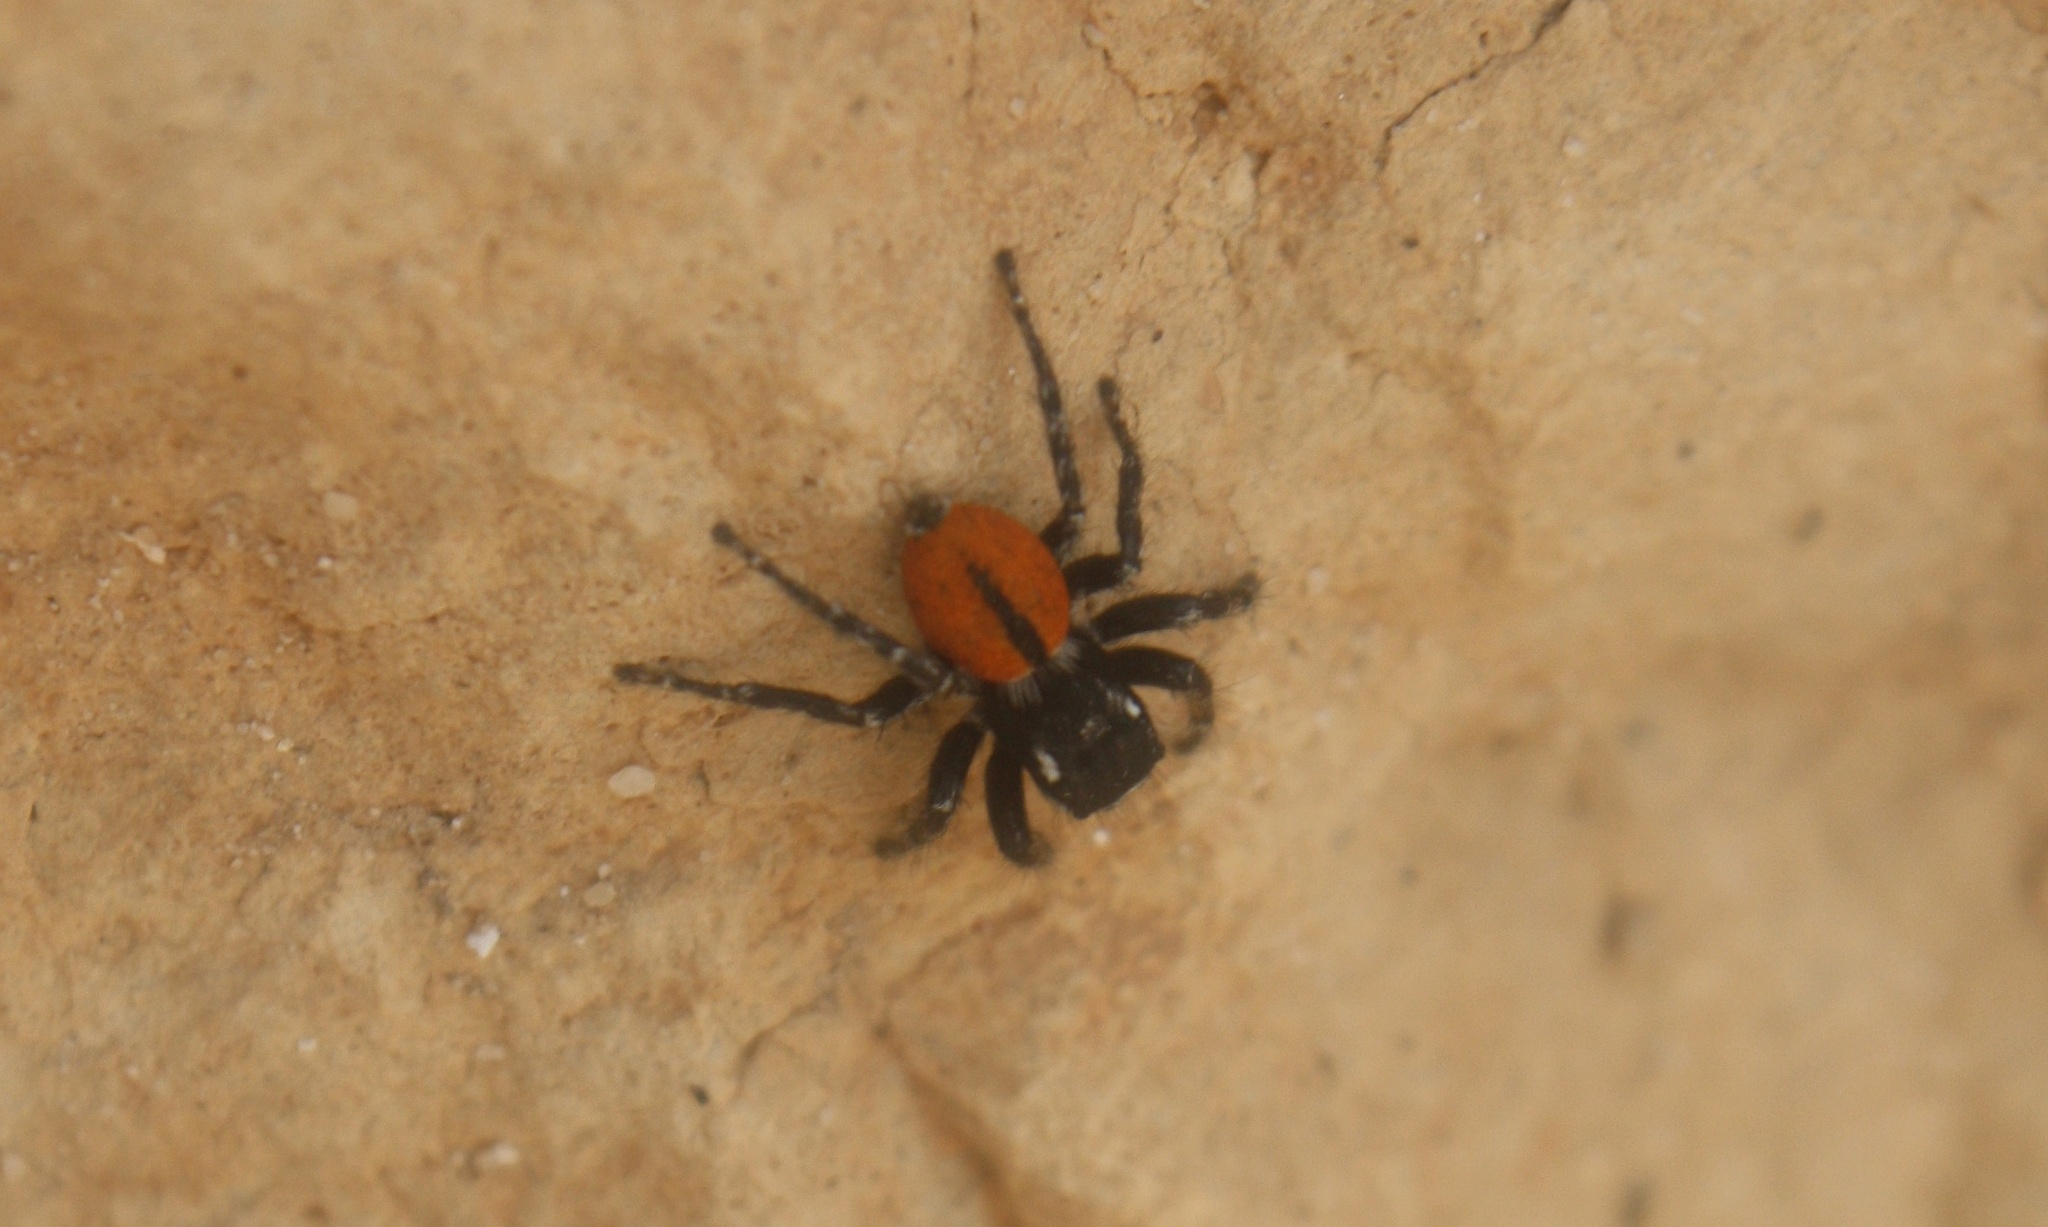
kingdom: Animalia
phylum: Arthropoda
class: Arachnida
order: Araneae
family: Salticidae
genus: Philaeus
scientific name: Philaeus chrysops
